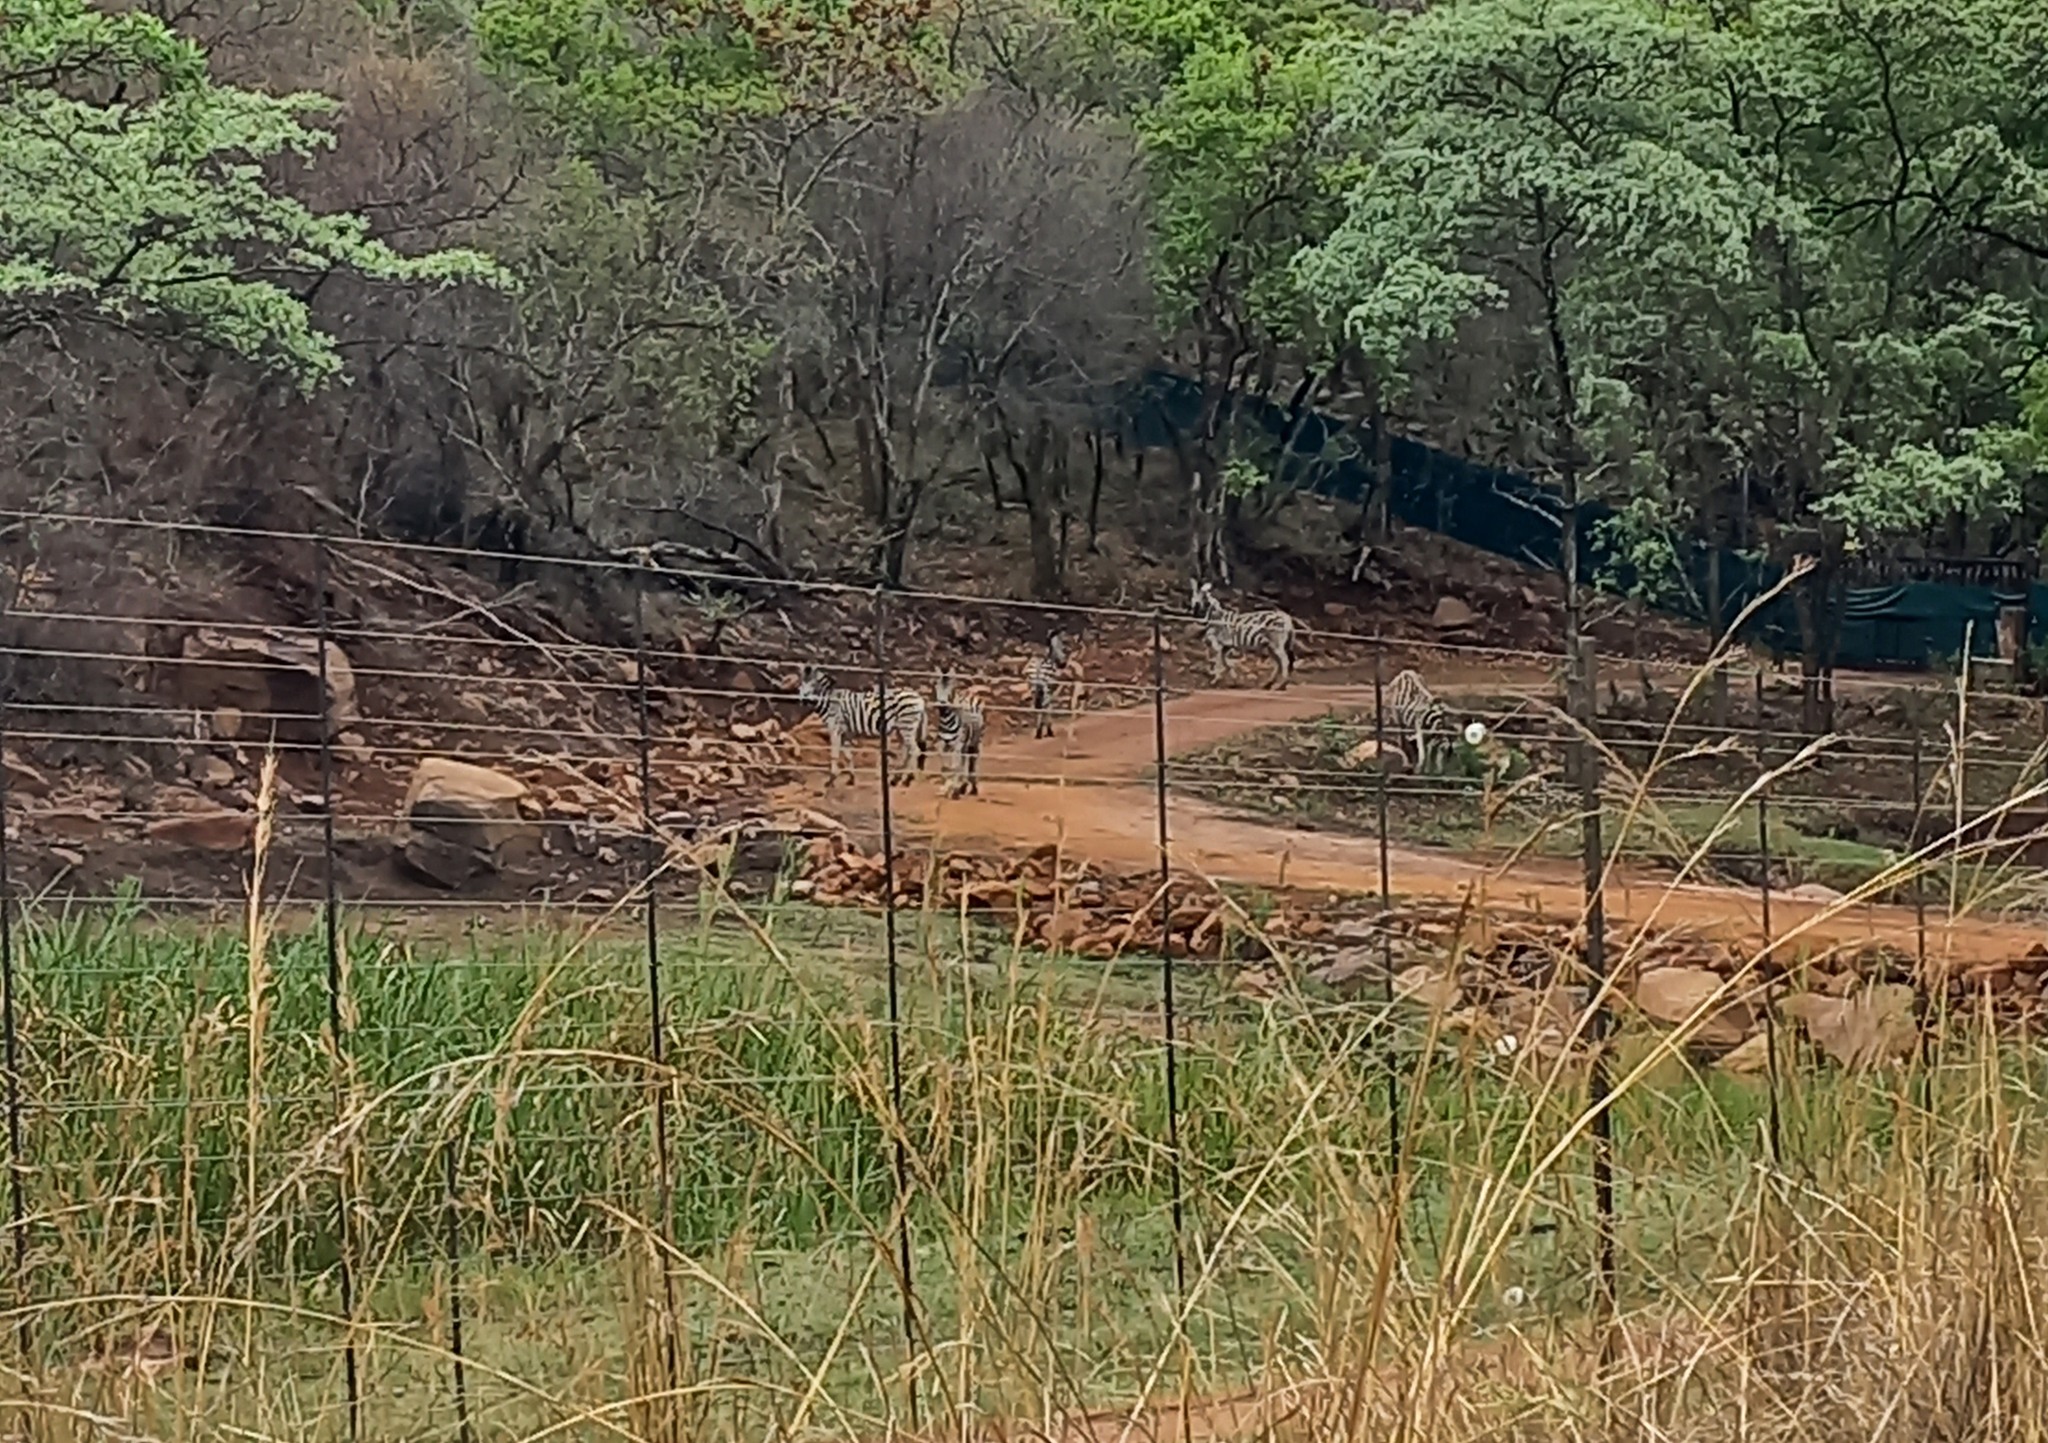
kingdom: Animalia
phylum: Chordata
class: Mammalia
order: Perissodactyla
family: Equidae
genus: Equus
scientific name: Equus quagga
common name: Plains zebra
